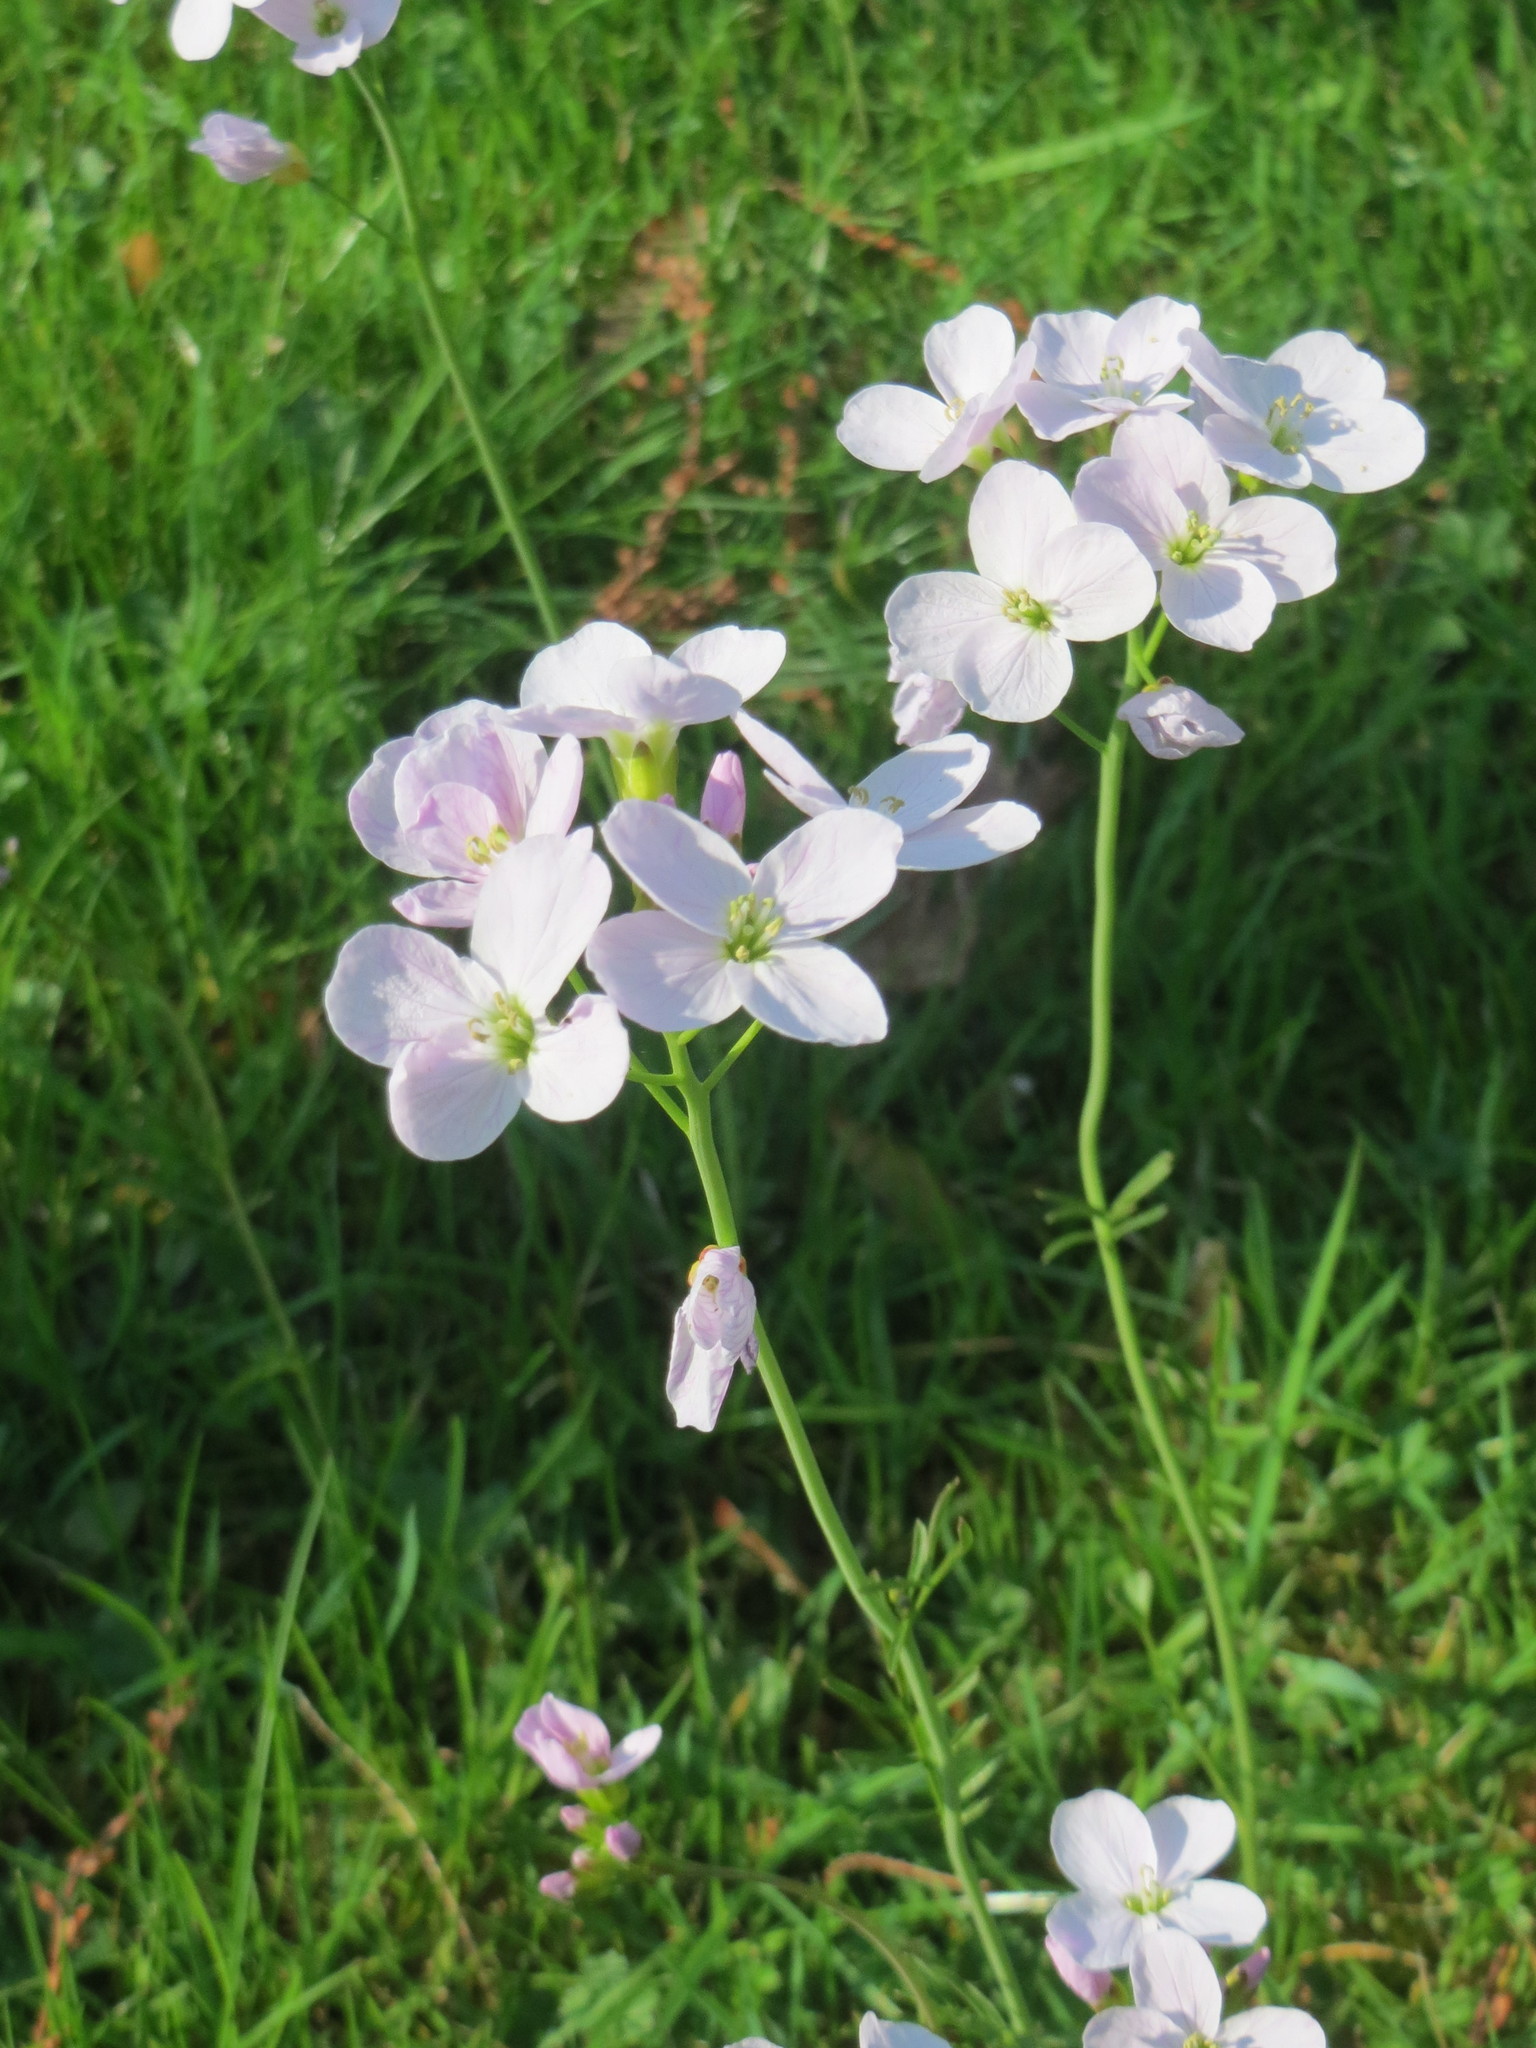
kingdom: Plantae
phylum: Tracheophyta
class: Magnoliopsida
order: Brassicales
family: Brassicaceae
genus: Cardamine
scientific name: Cardamine pratensis
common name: Cuckoo flower
